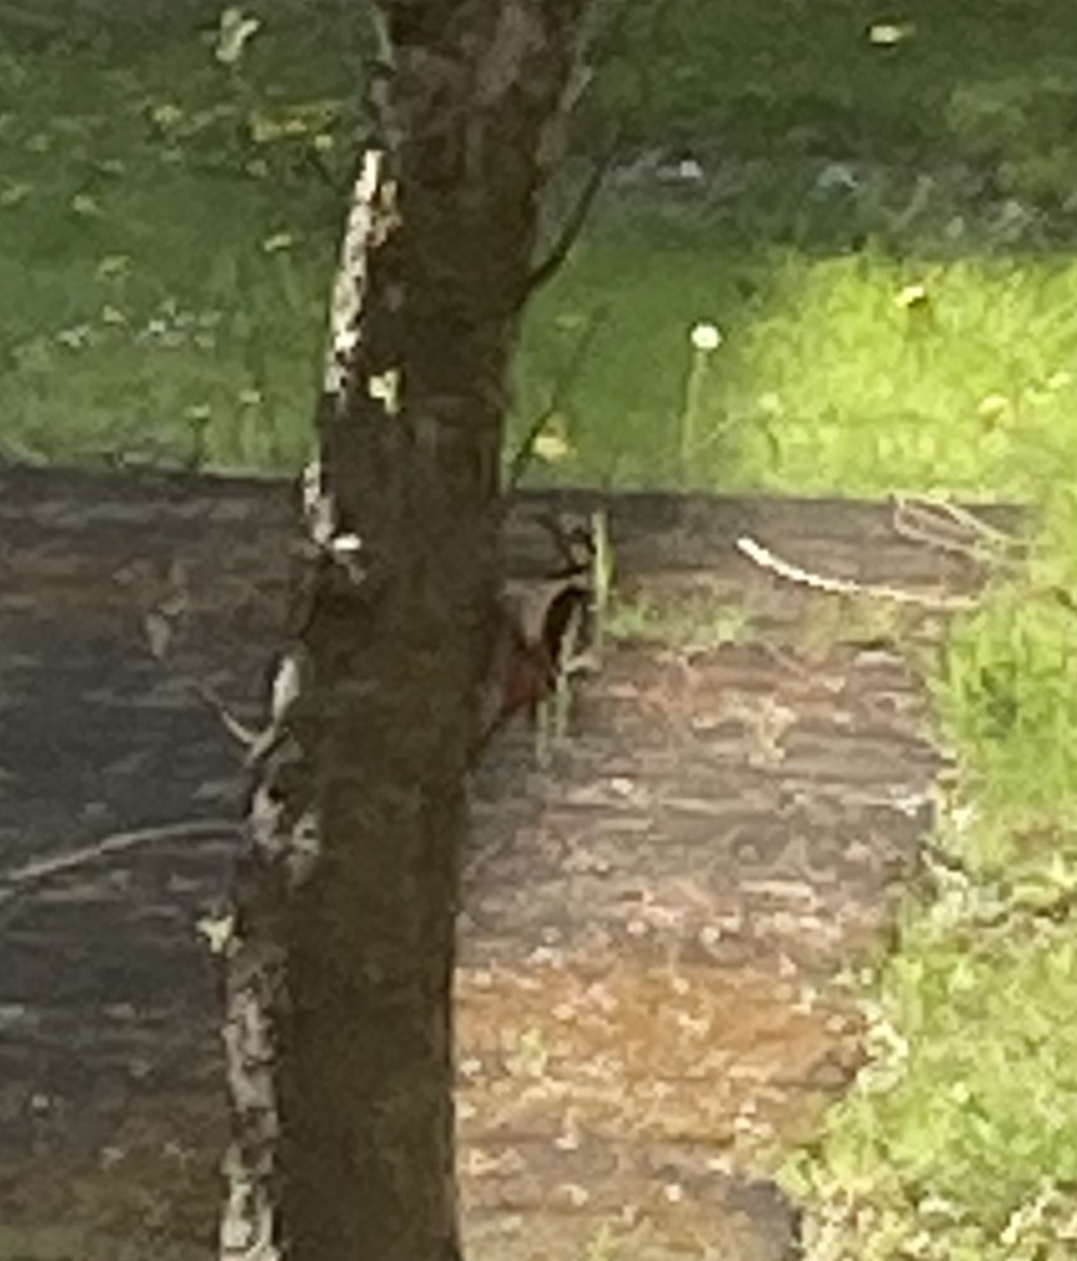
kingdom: Animalia
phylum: Chordata
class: Aves
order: Piciformes
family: Picidae
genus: Dendrocopos
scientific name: Dendrocopos major
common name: Great spotted woodpecker
